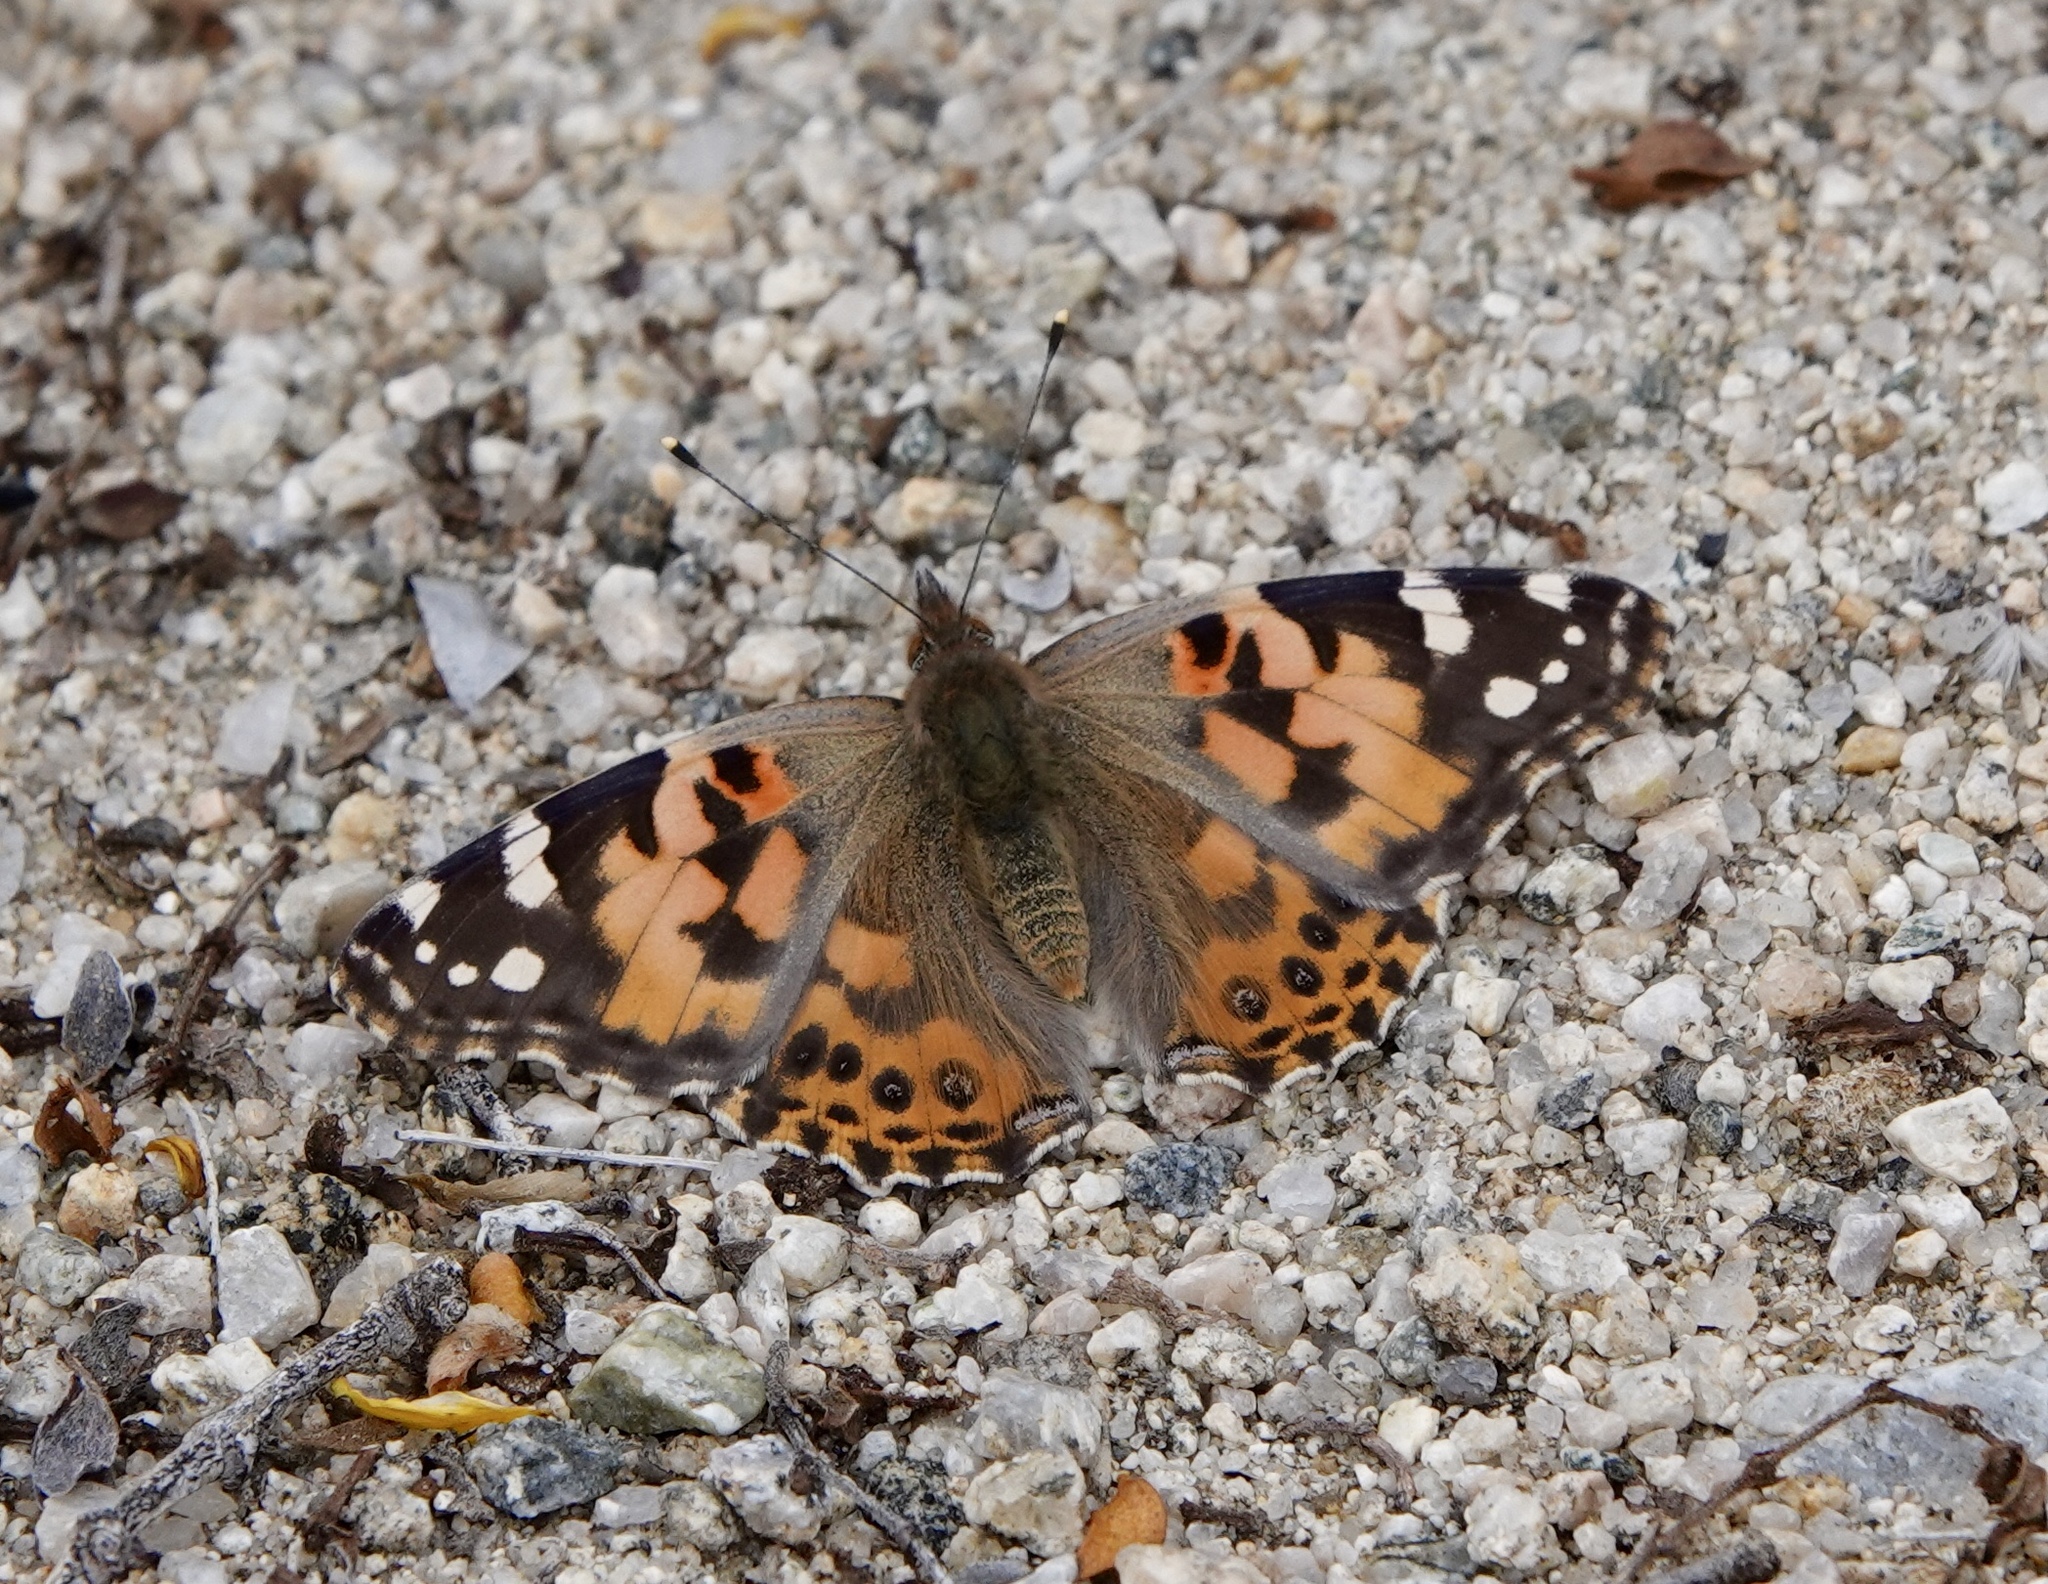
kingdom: Animalia
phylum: Arthropoda
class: Insecta
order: Lepidoptera
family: Nymphalidae
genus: Vanessa
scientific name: Vanessa cardui
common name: Painted lady
